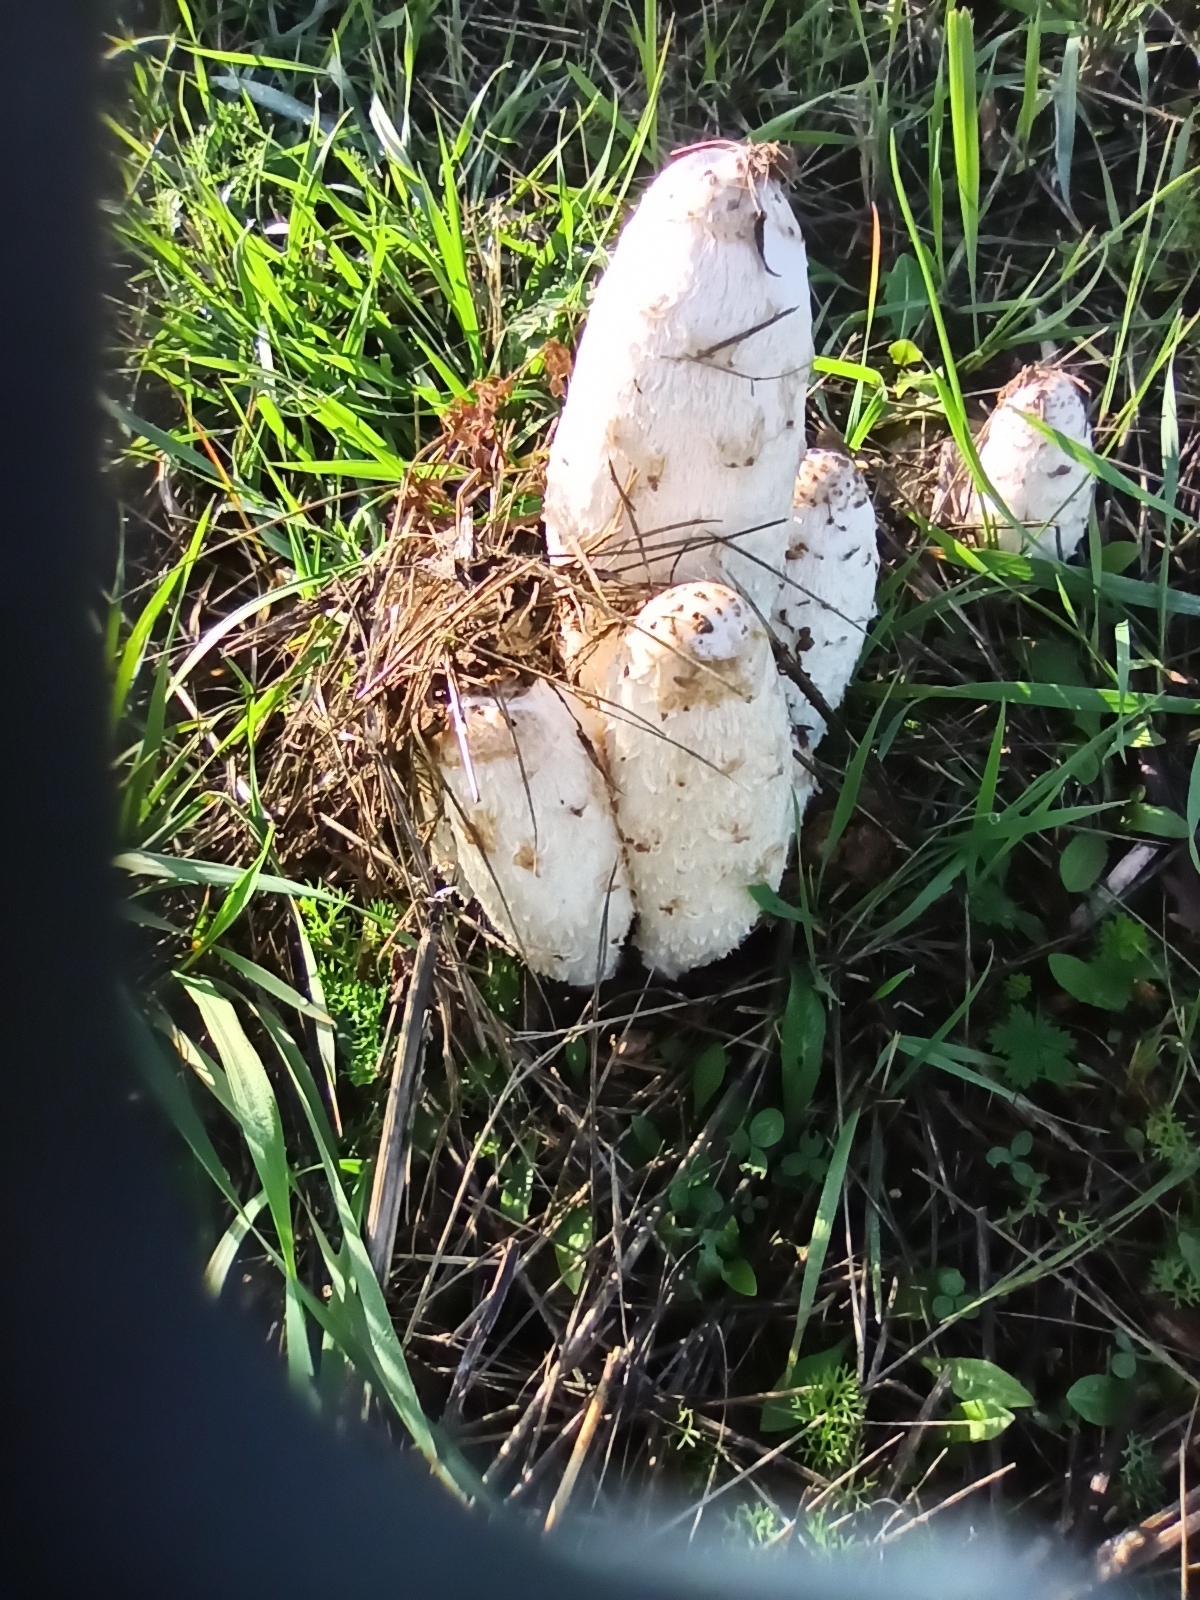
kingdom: Fungi
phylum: Basidiomycota
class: Agaricomycetes
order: Agaricales
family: Agaricaceae
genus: Coprinus
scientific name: Coprinus comatus
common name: Lawyer's wig
